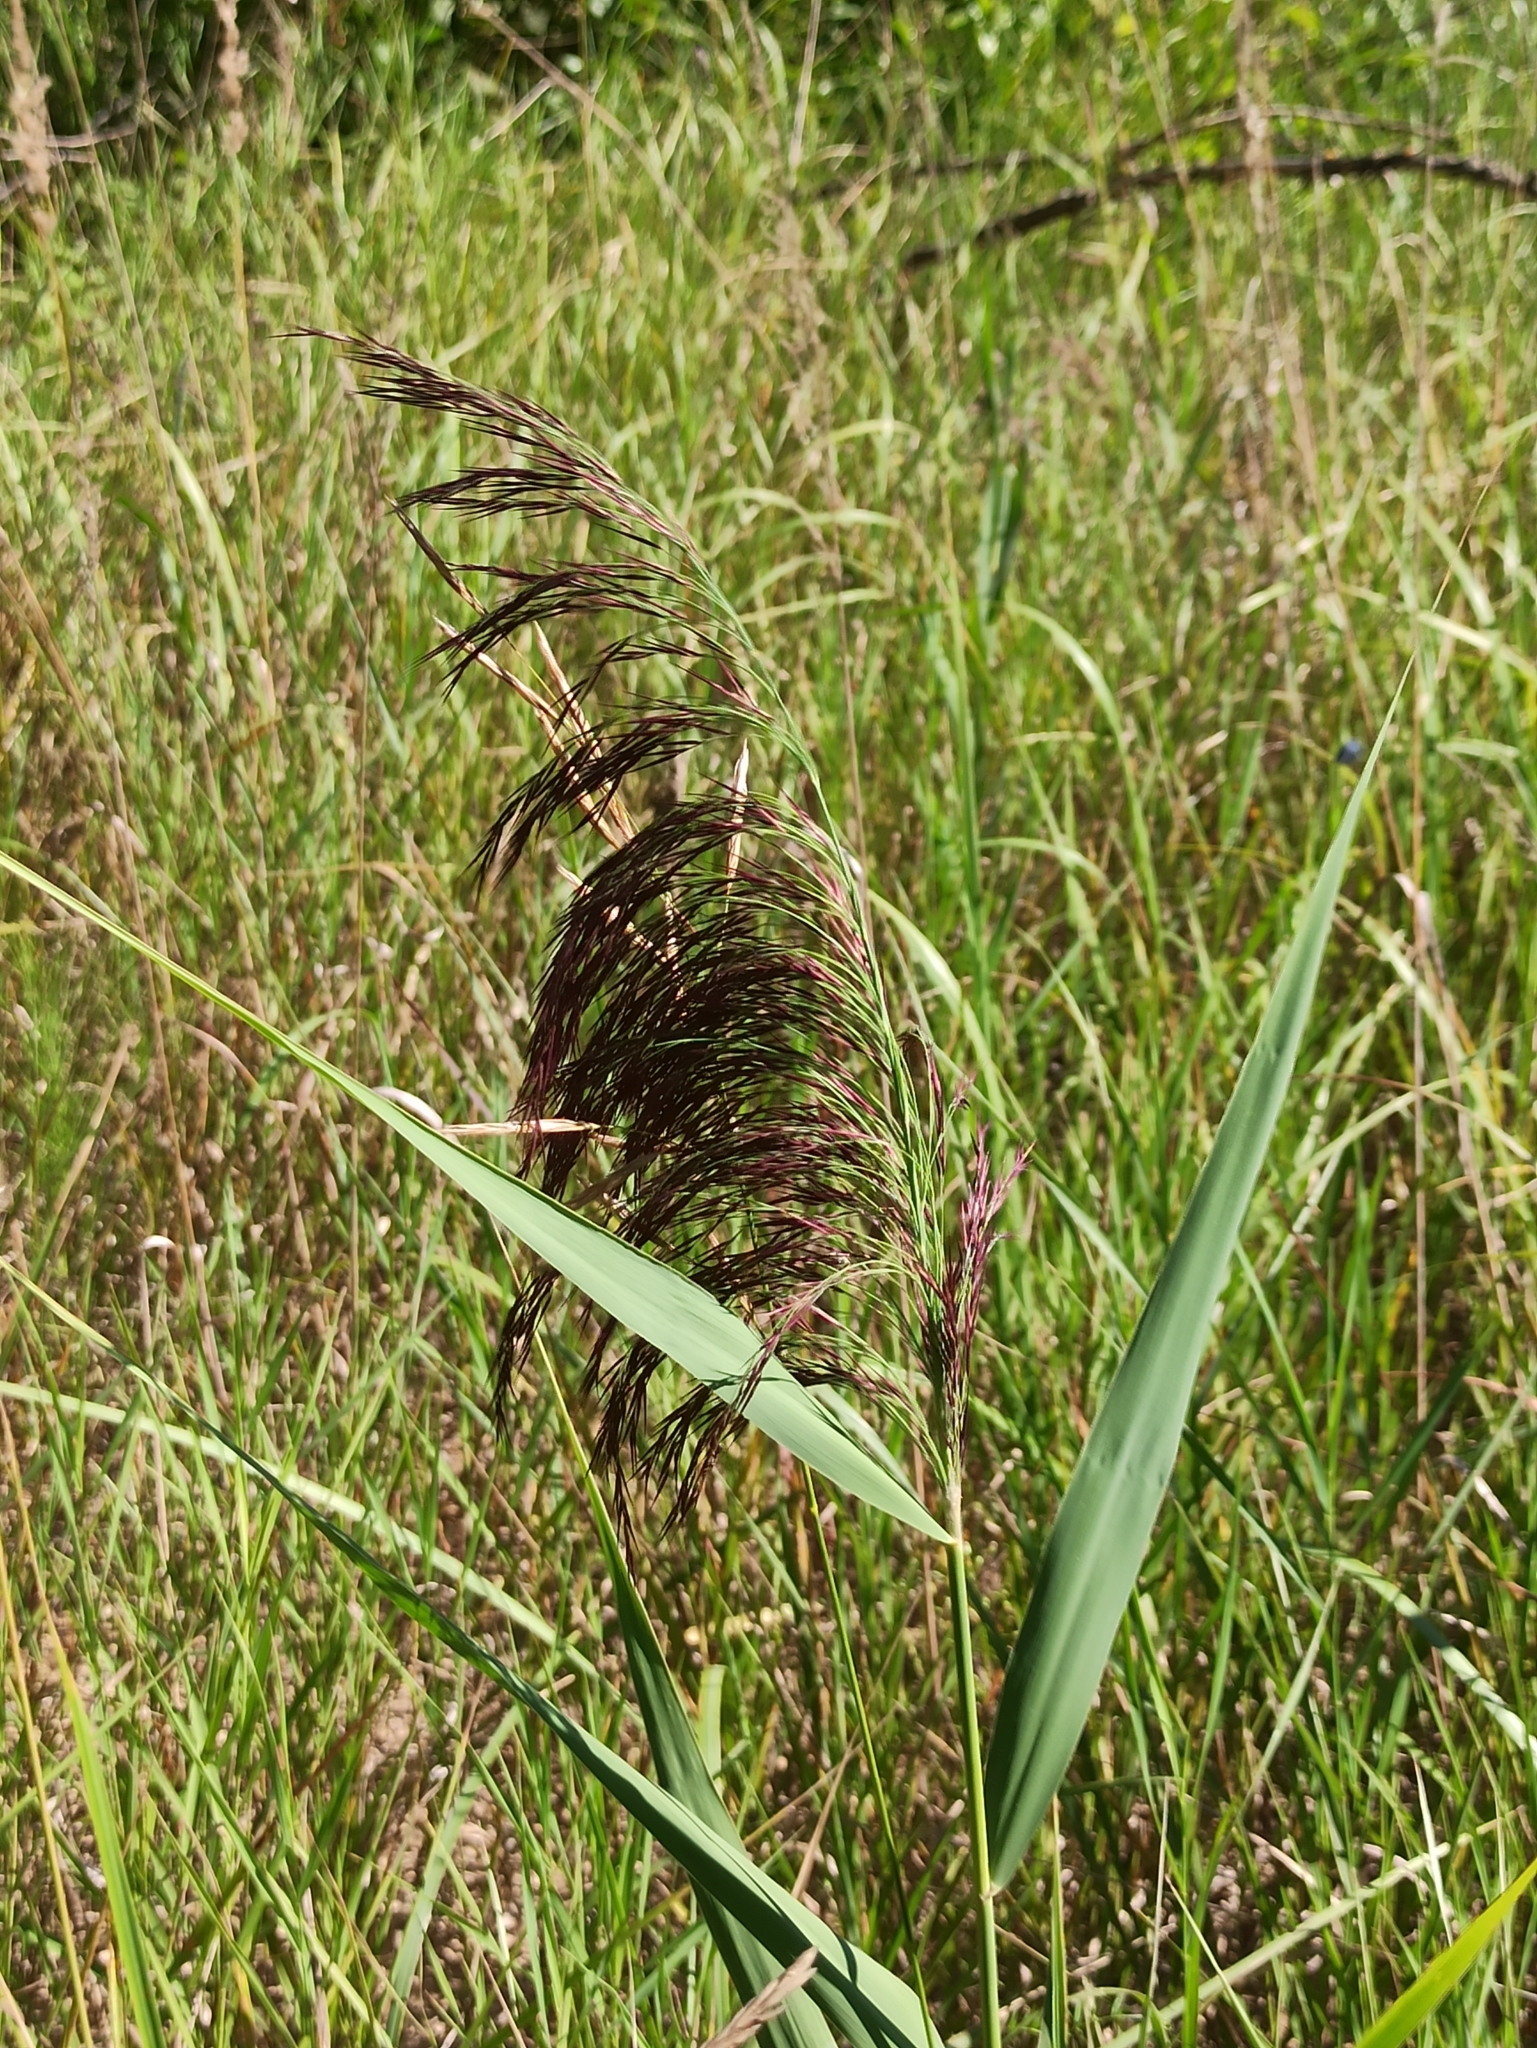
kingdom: Plantae
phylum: Tracheophyta
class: Liliopsida
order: Poales
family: Poaceae
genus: Phragmites
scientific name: Phragmites australis
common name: Common reed
